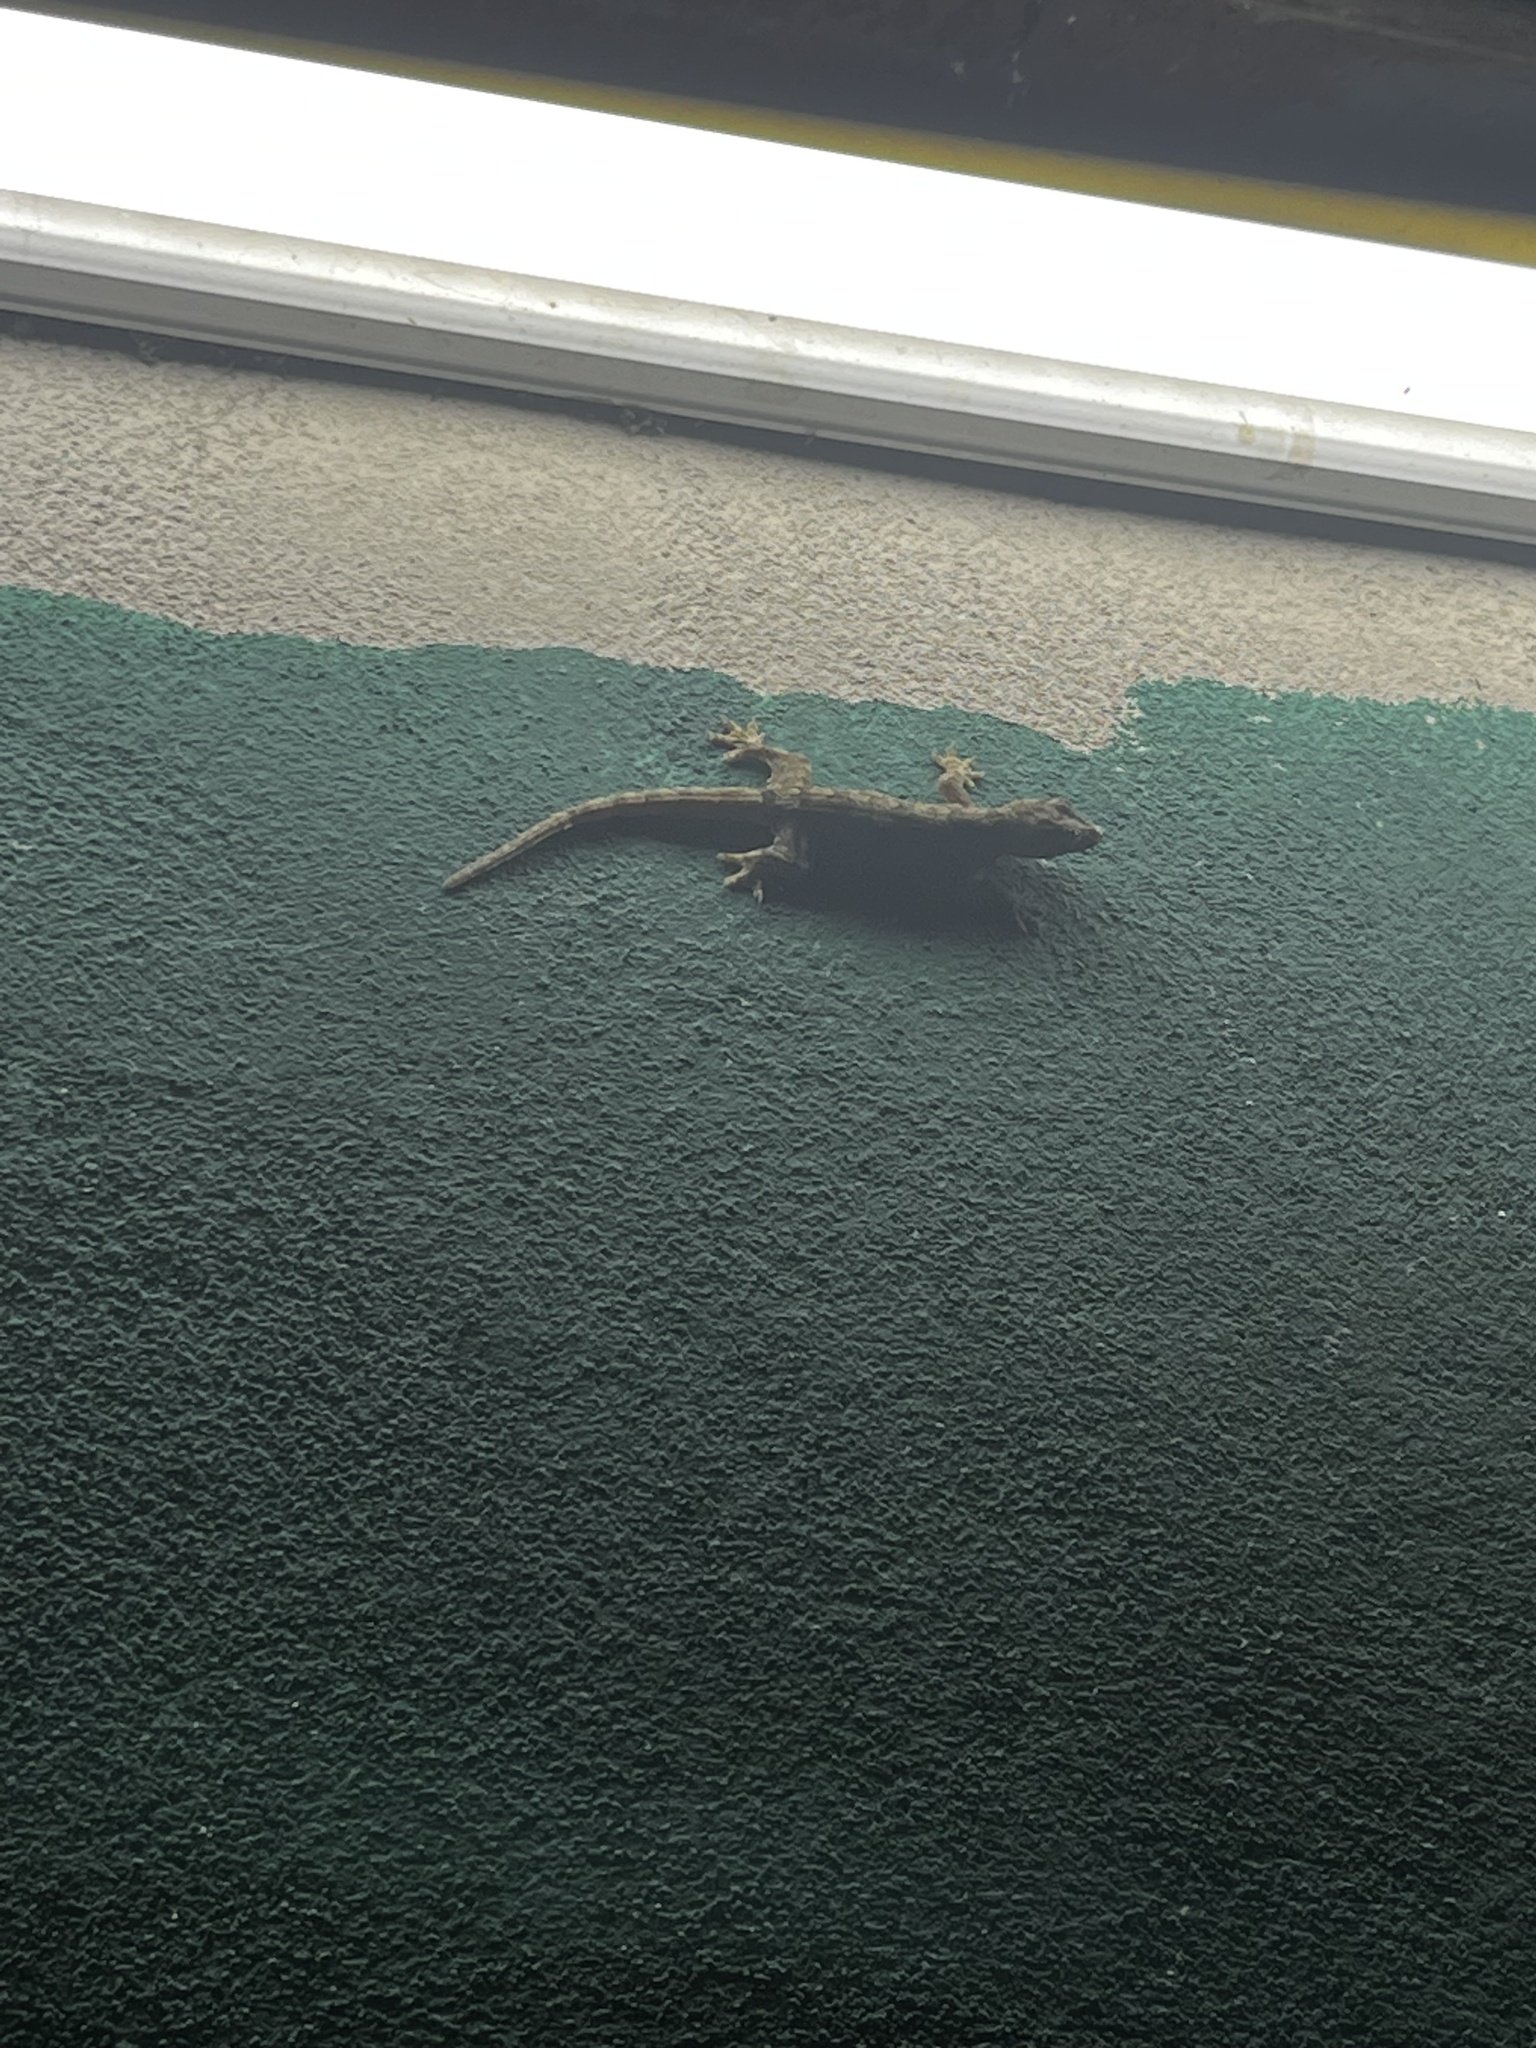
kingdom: Animalia
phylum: Chordata
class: Squamata
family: Gekkonidae
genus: Hemidactylus
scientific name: Hemidactylus platyurus
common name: Flat-tailed house gecko
